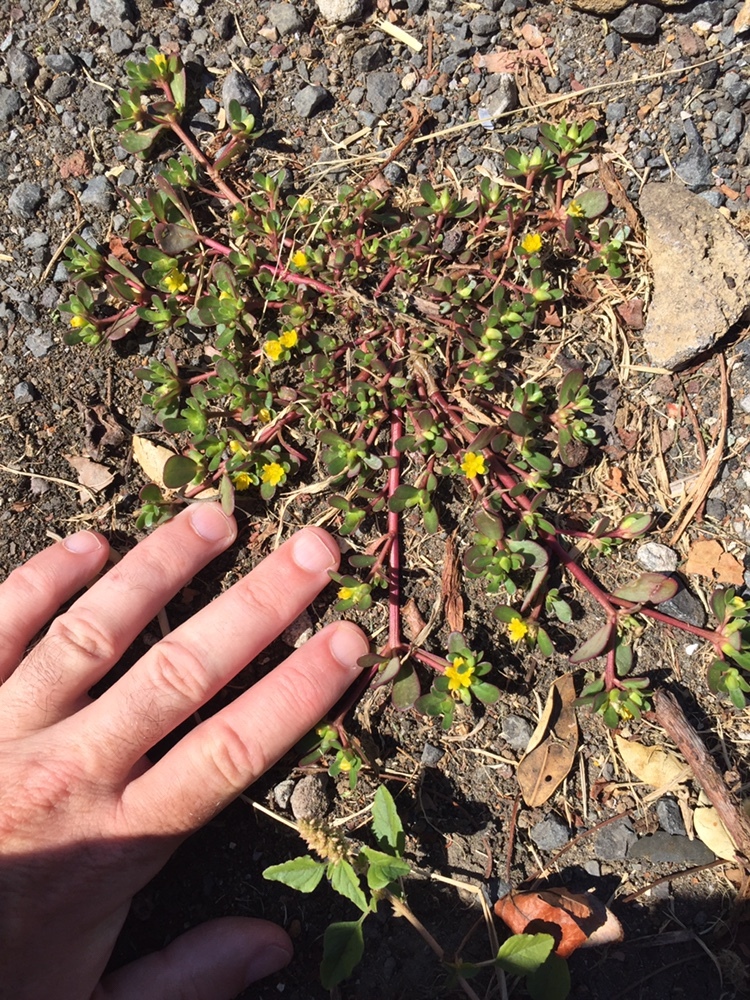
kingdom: Plantae
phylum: Tracheophyta
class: Magnoliopsida
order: Caryophyllales
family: Portulacaceae
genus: Portulaca
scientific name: Portulaca oleracea
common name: Common purslane
